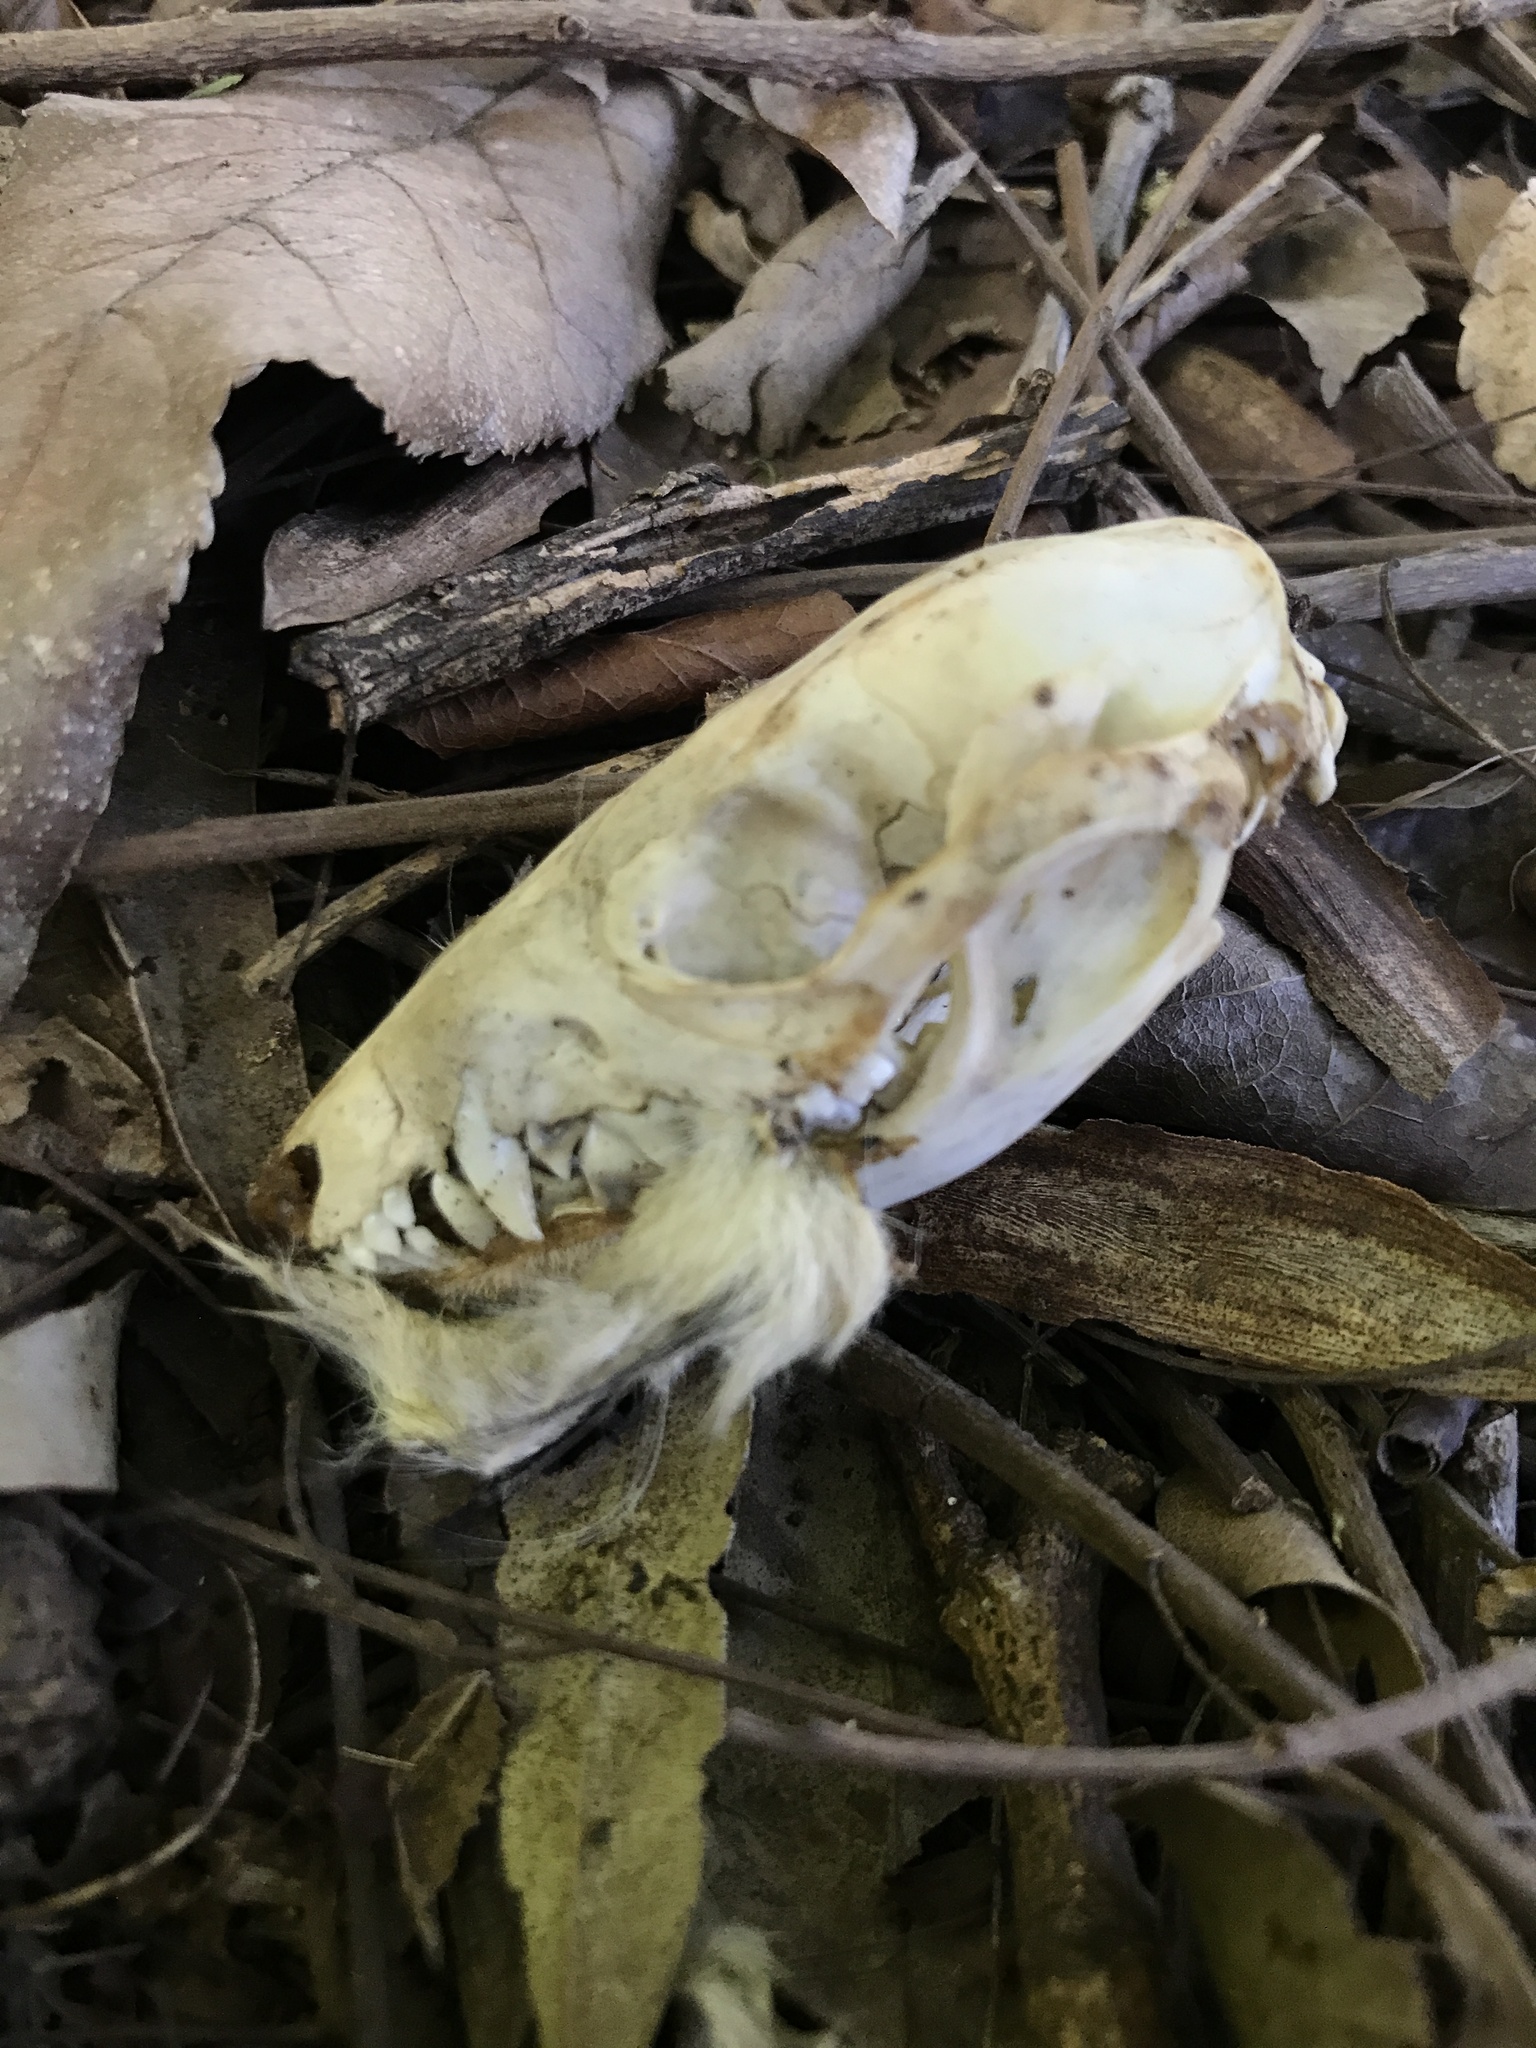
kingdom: Animalia
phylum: Chordata
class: Mammalia
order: Didelphimorphia
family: Didelphidae
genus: Didelphis
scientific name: Didelphis albiventris
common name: White-eared opossum
